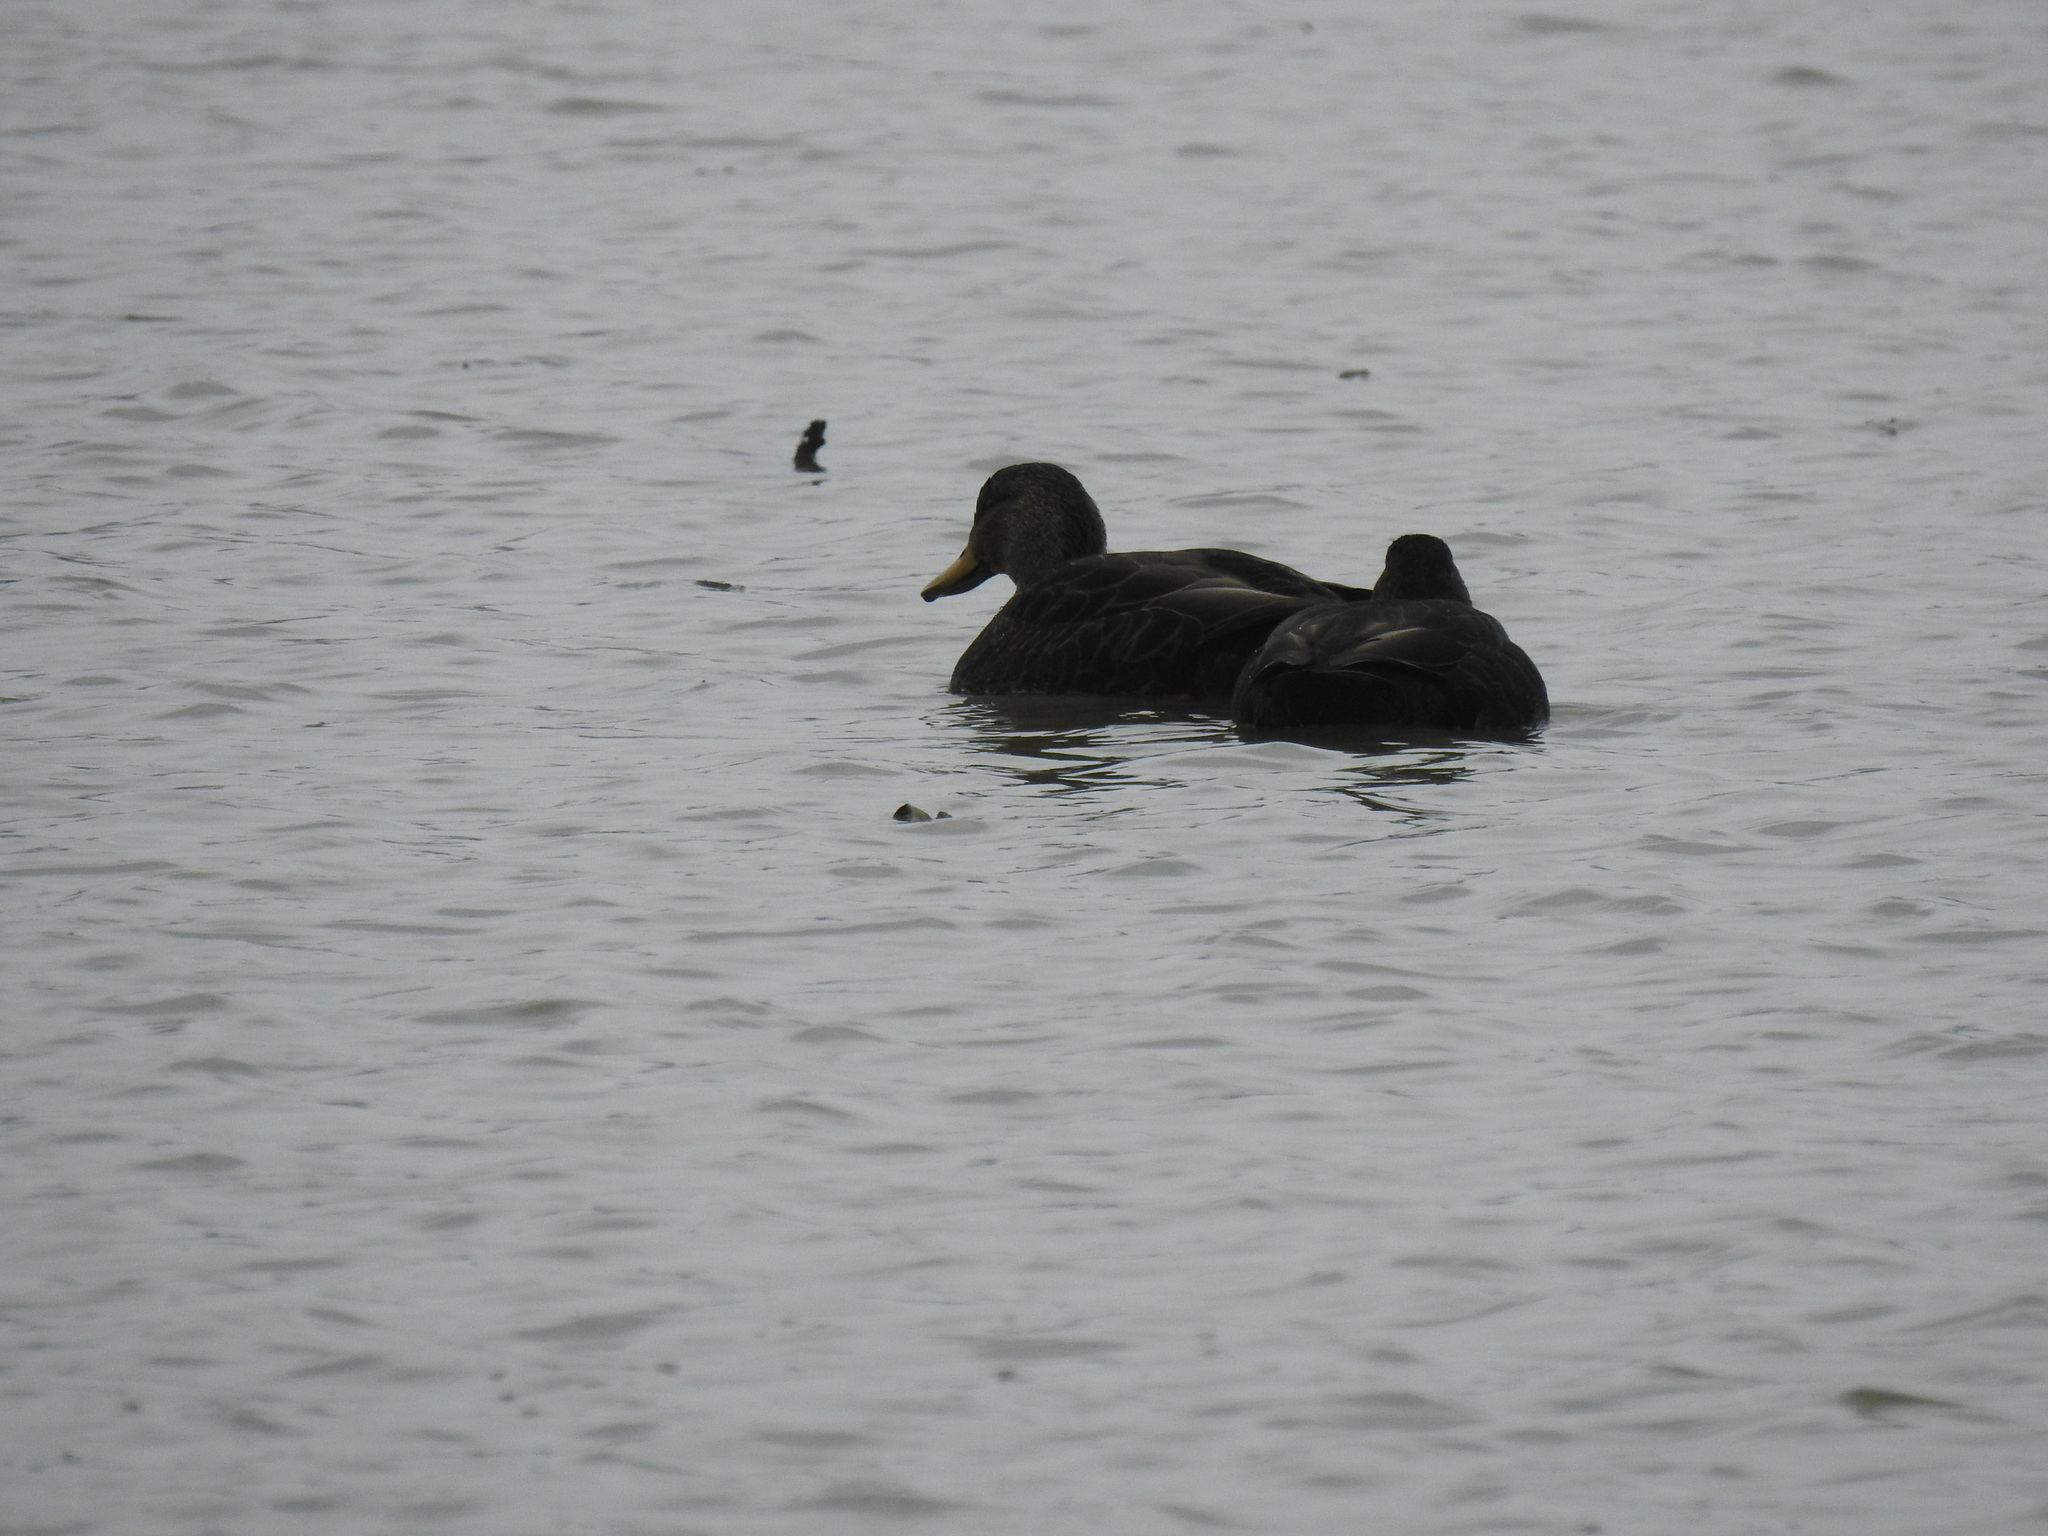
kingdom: Animalia
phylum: Chordata
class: Aves
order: Anseriformes
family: Anatidae
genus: Anas
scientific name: Anas rubripes
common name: American black duck
